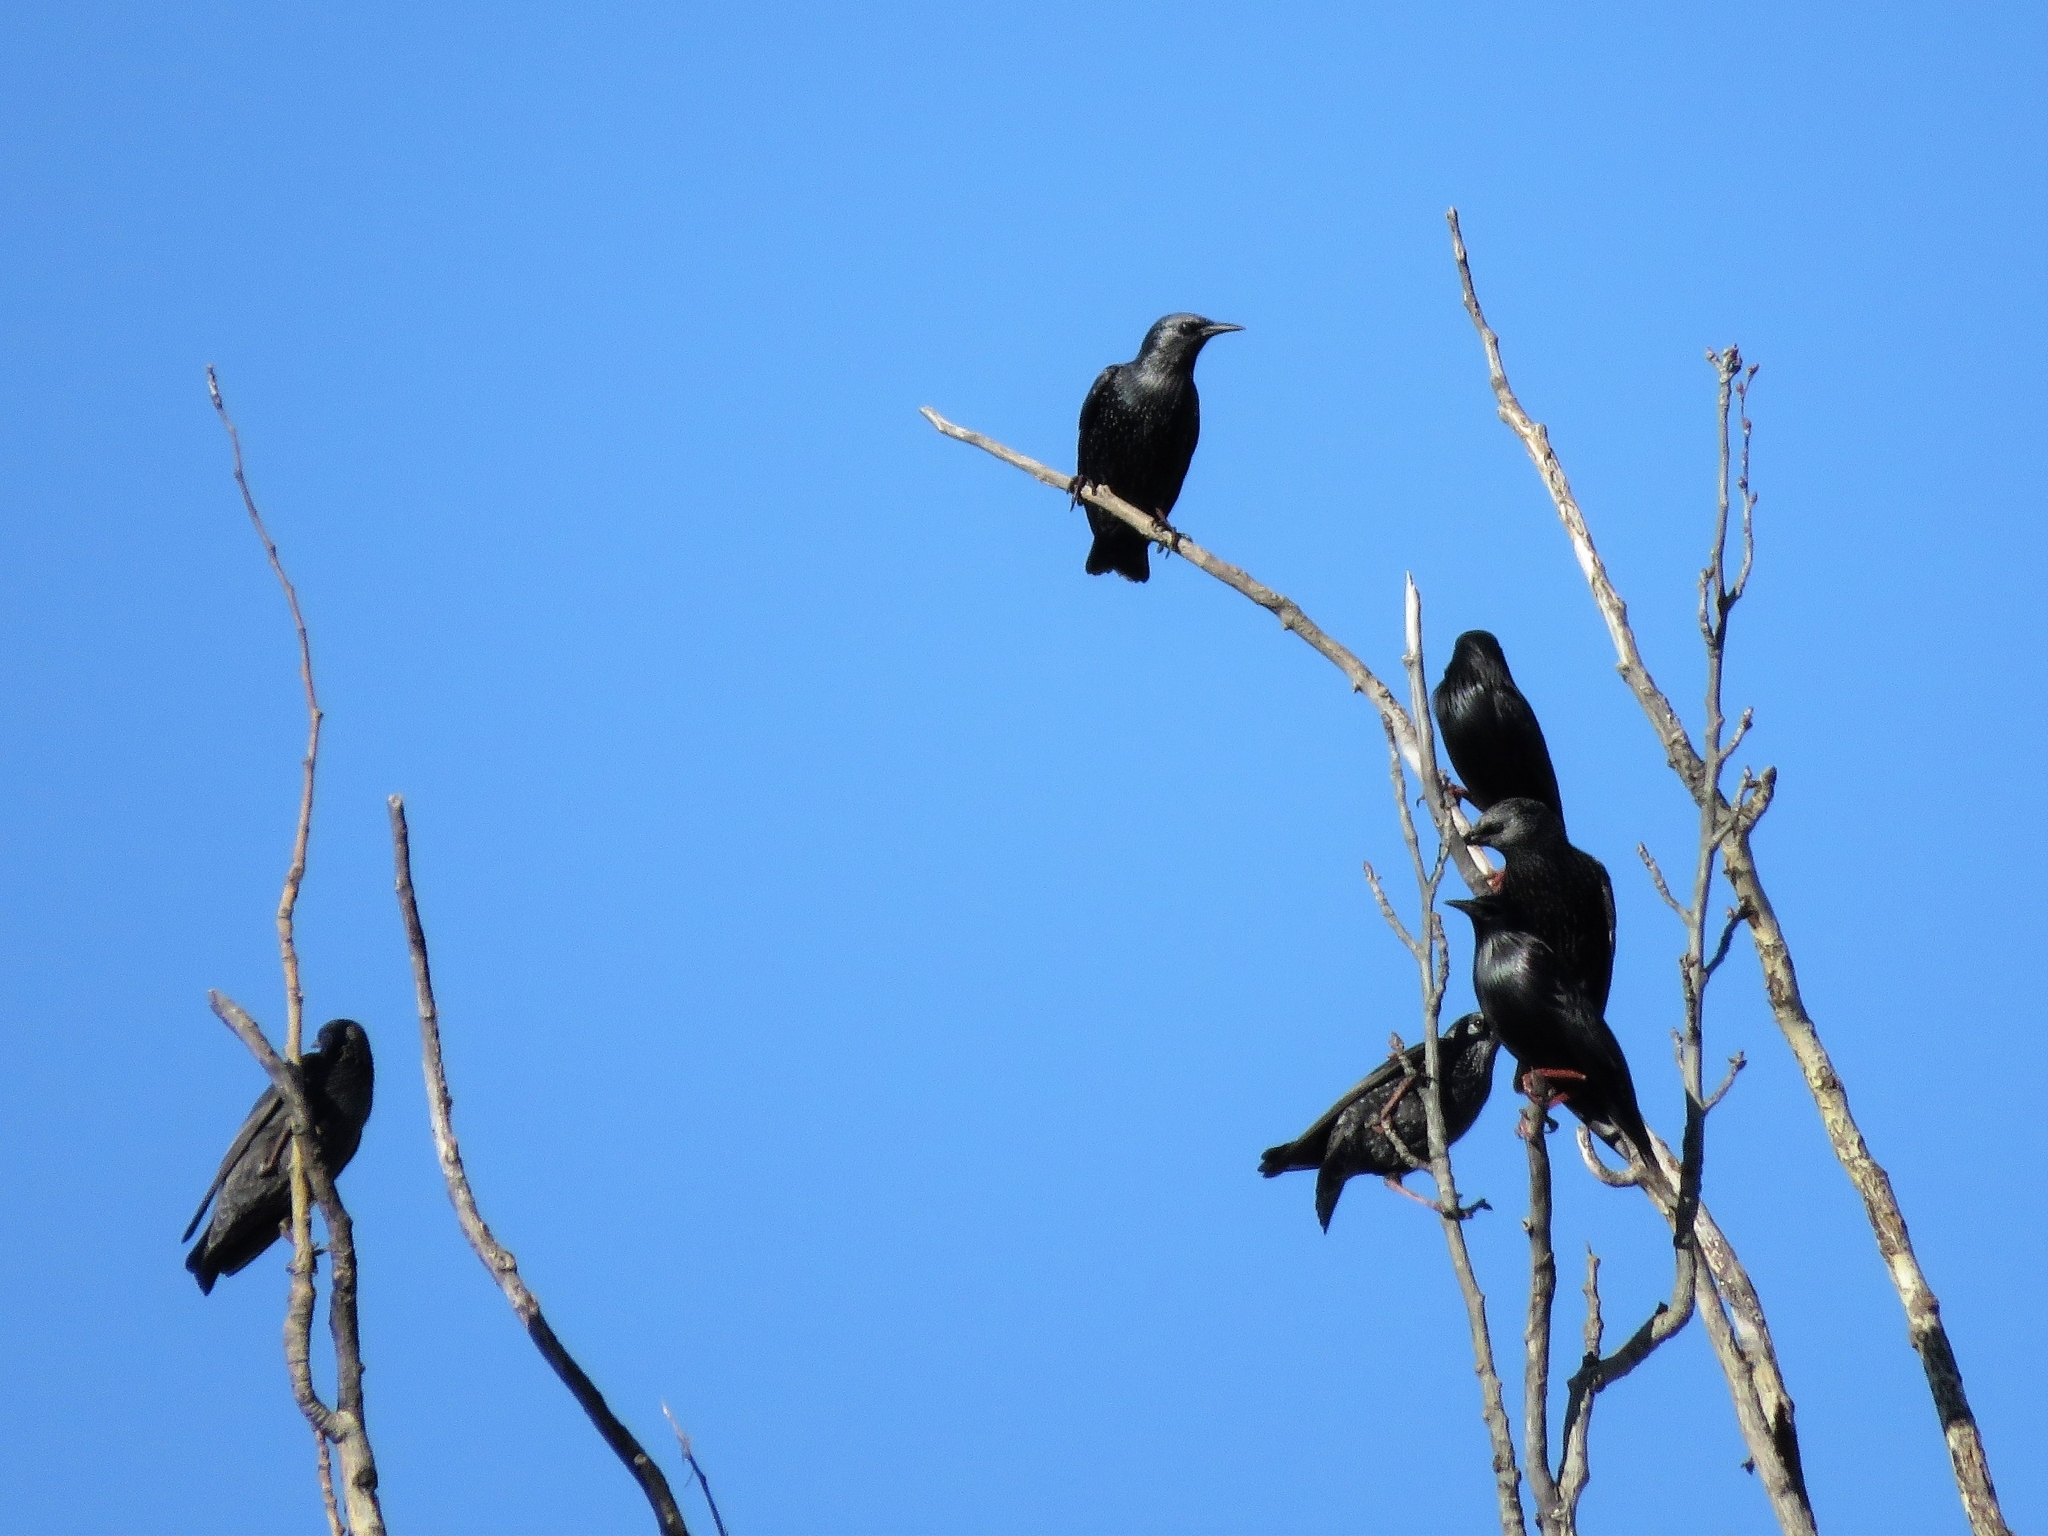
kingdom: Animalia
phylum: Chordata
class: Aves
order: Passeriformes
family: Sturnidae
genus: Sturnus
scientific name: Sturnus unicolor
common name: Spotless starling
